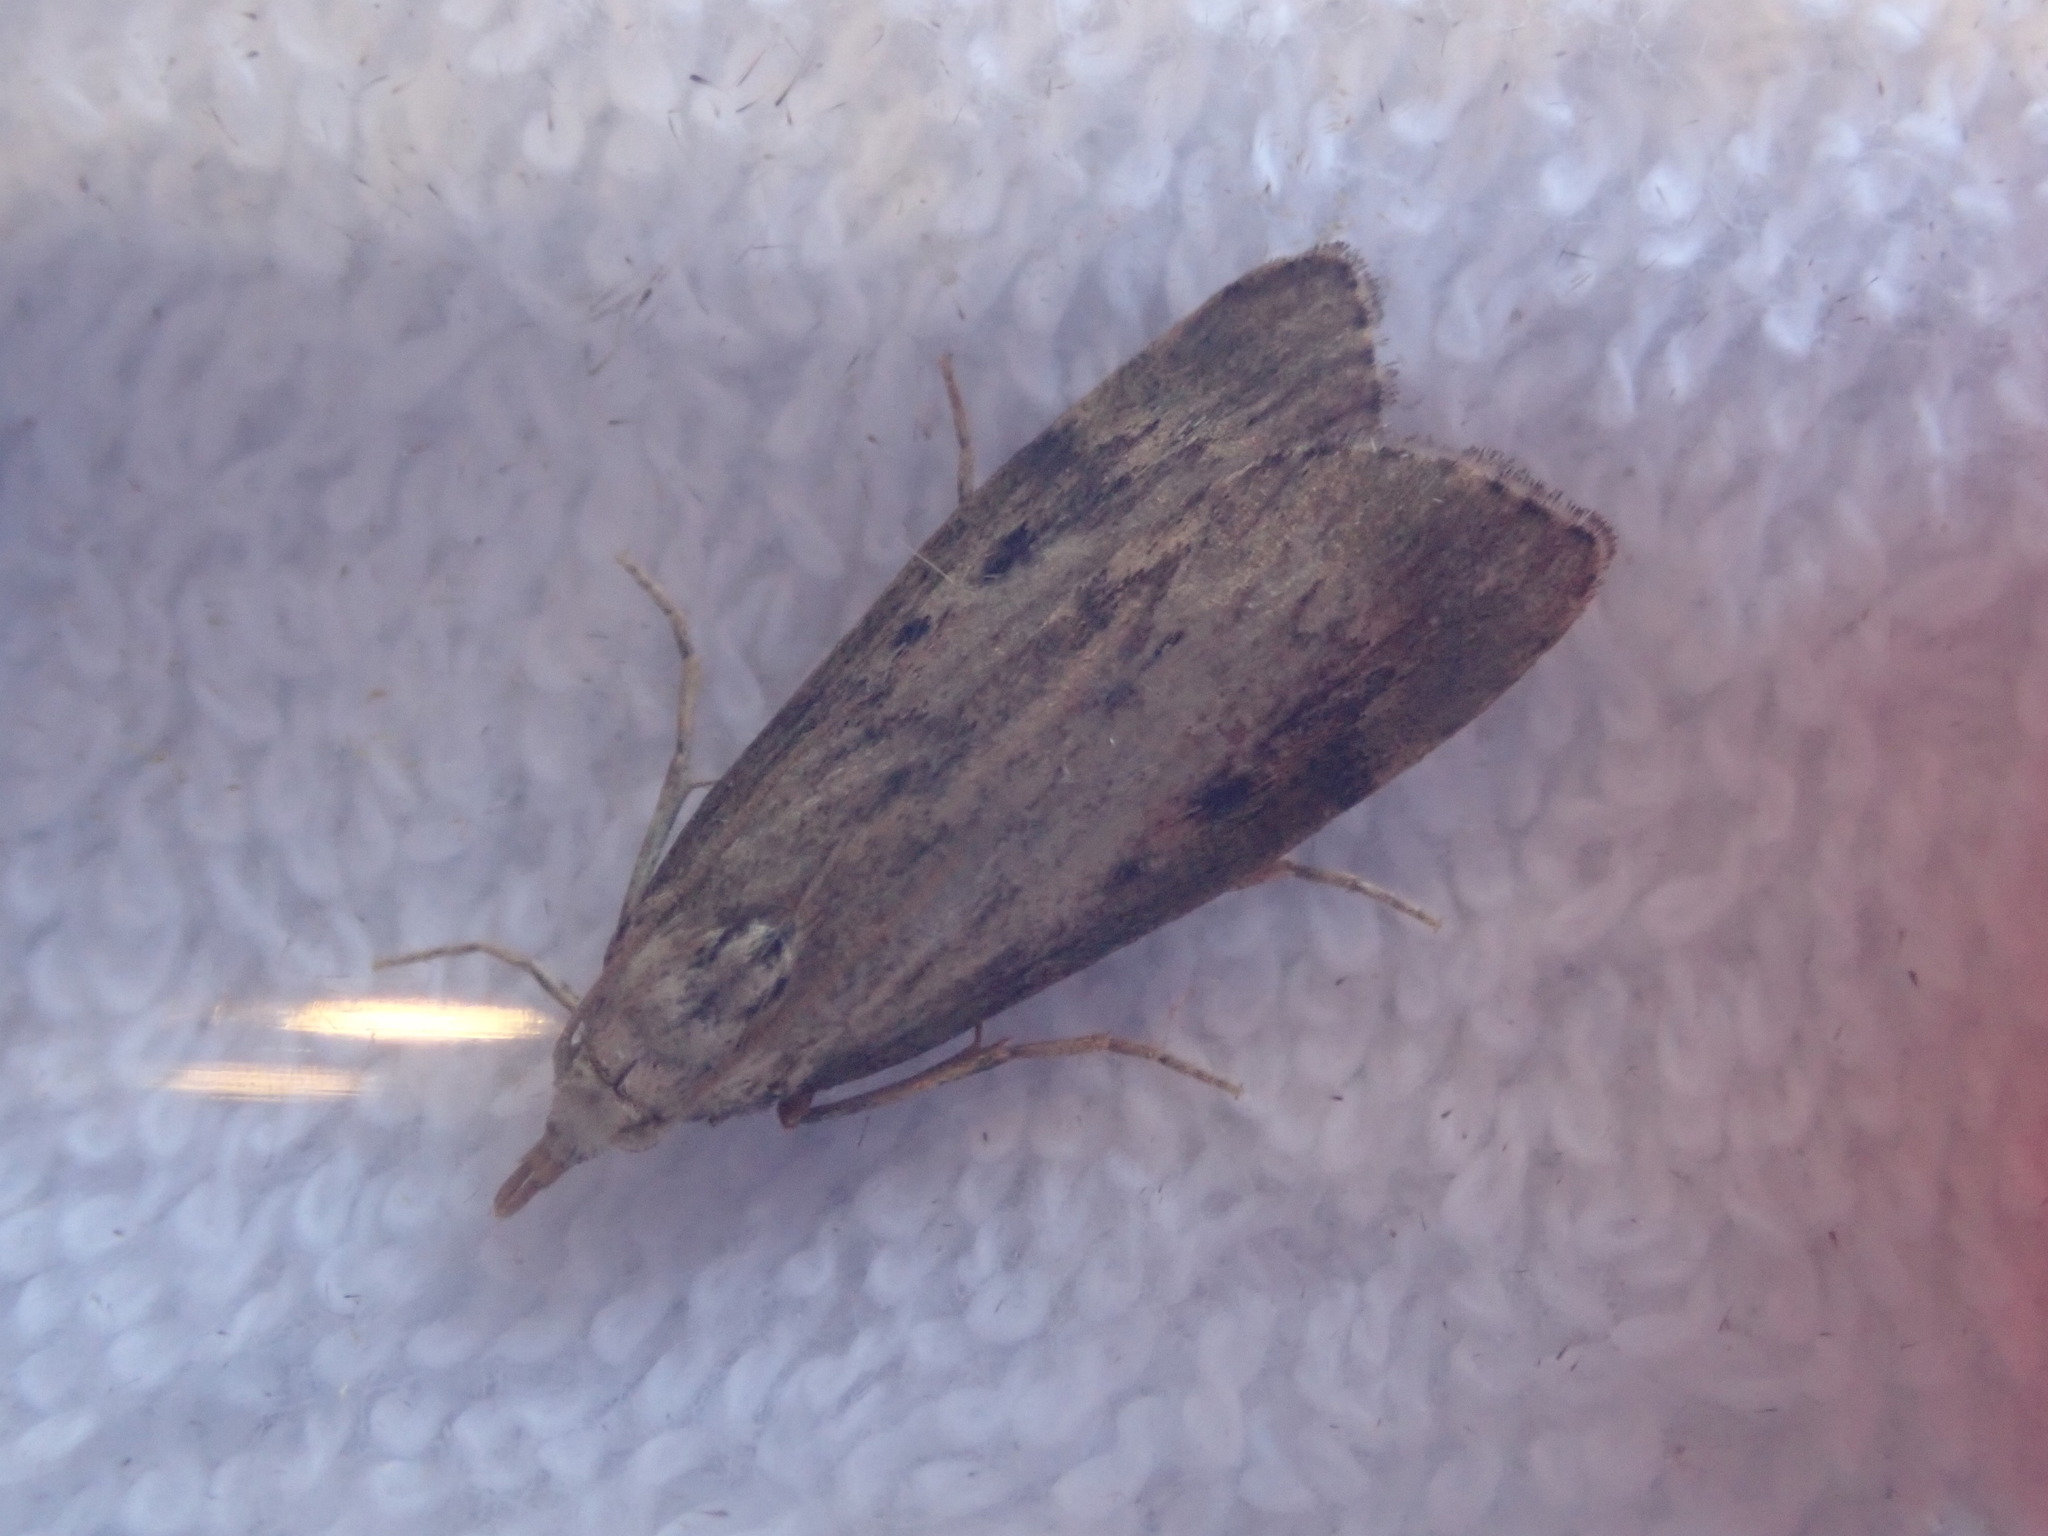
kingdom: Animalia
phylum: Arthropoda
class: Insecta
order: Lepidoptera
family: Pyralidae
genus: Aphomia
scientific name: Aphomia sociella
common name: Bee moth
